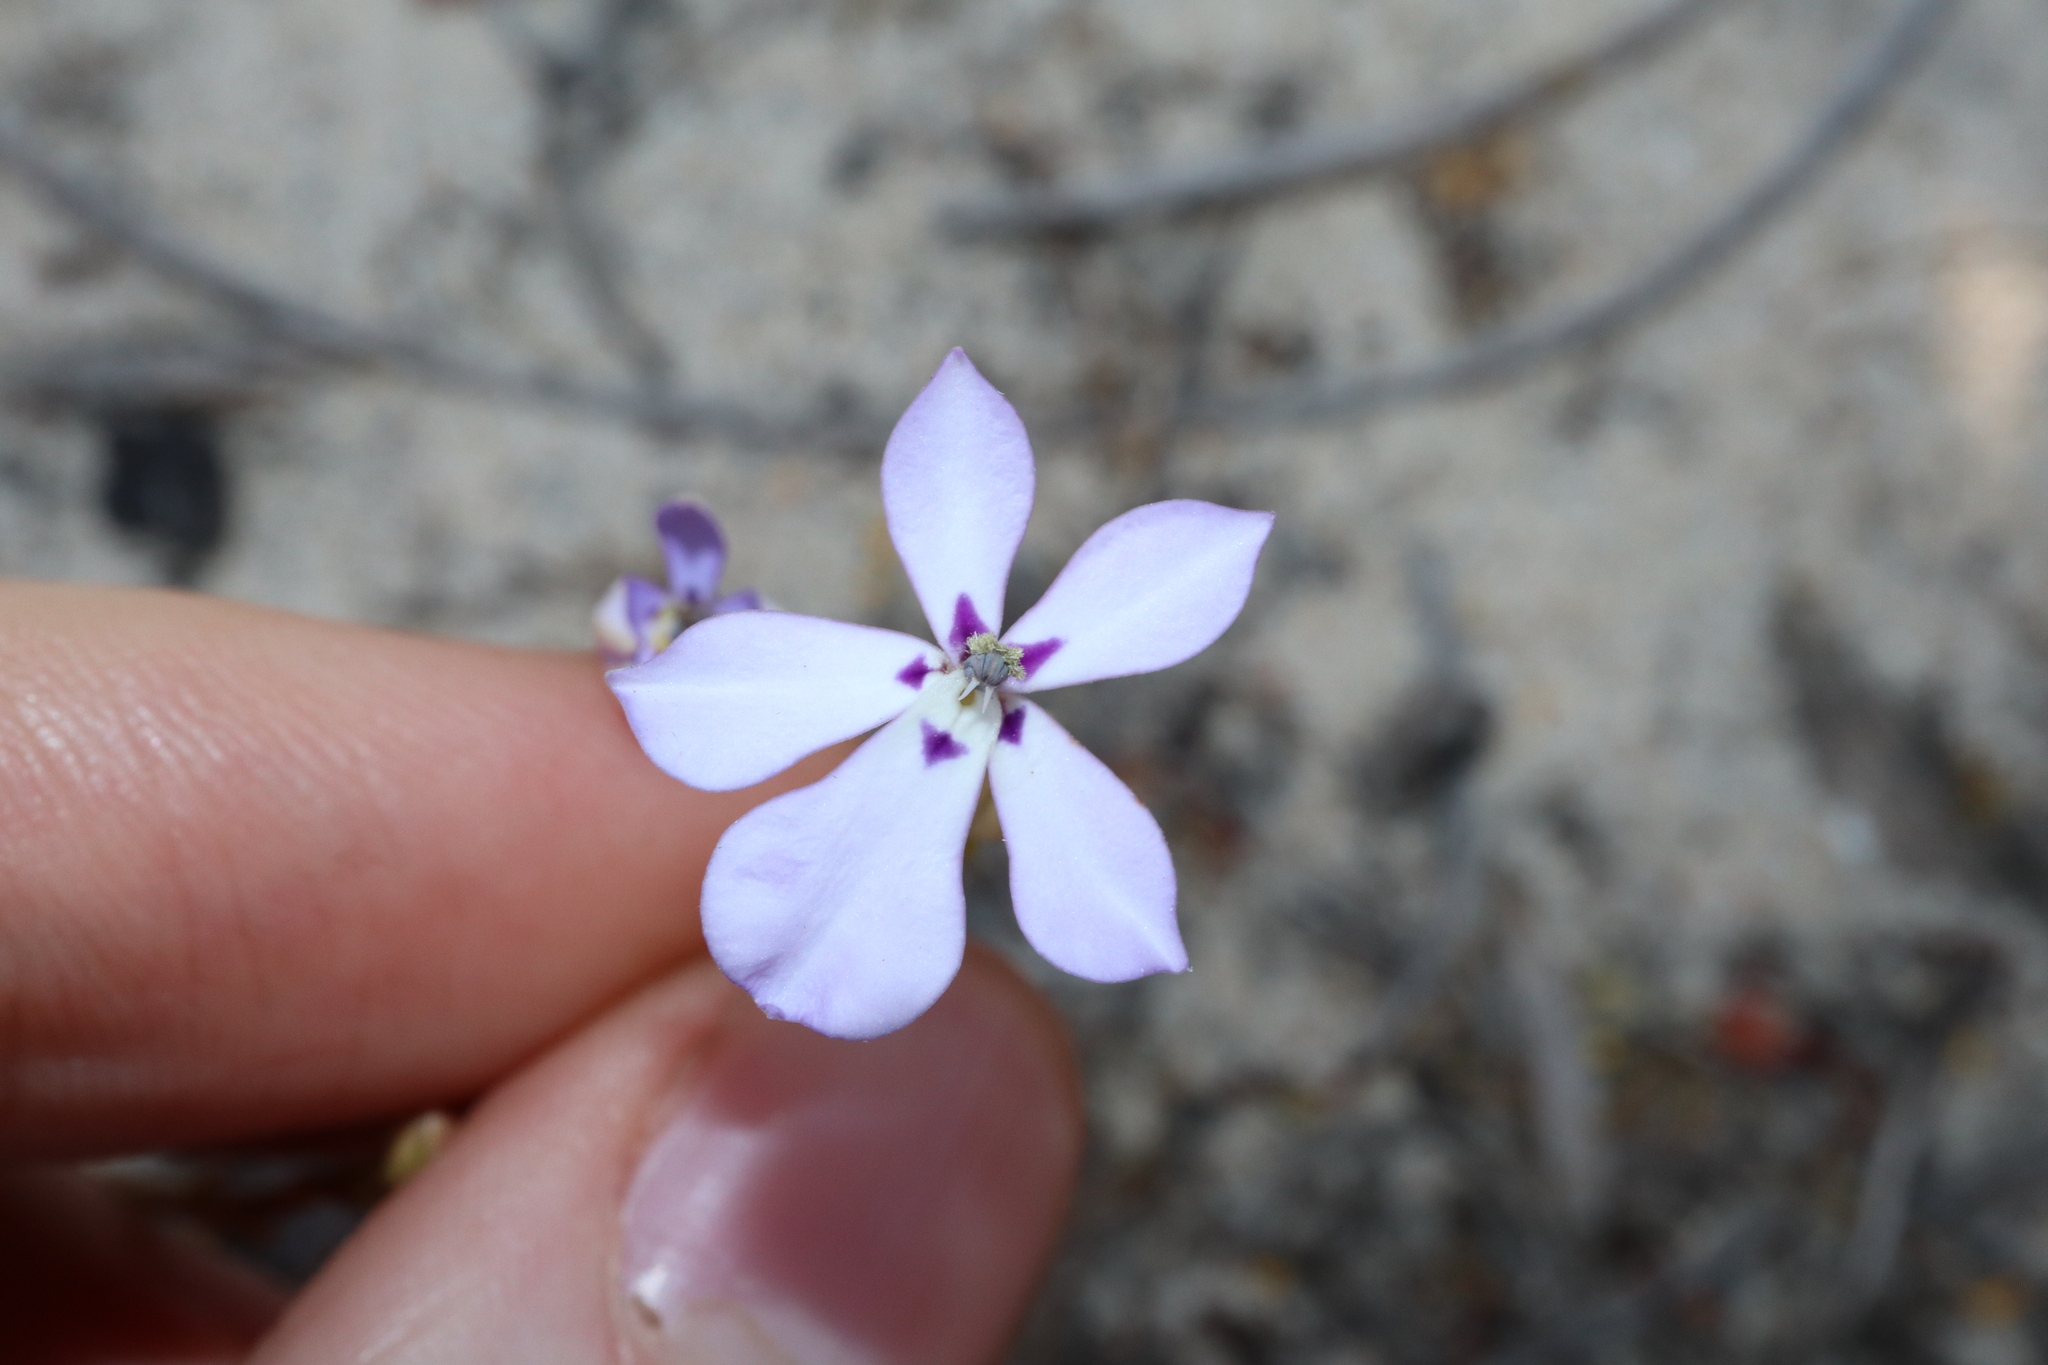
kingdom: Plantae
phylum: Tracheophyta
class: Magnoliopsida
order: Asterales
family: Campanulaceae
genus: Isotoma
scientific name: Isotoma hypocrateriformis
